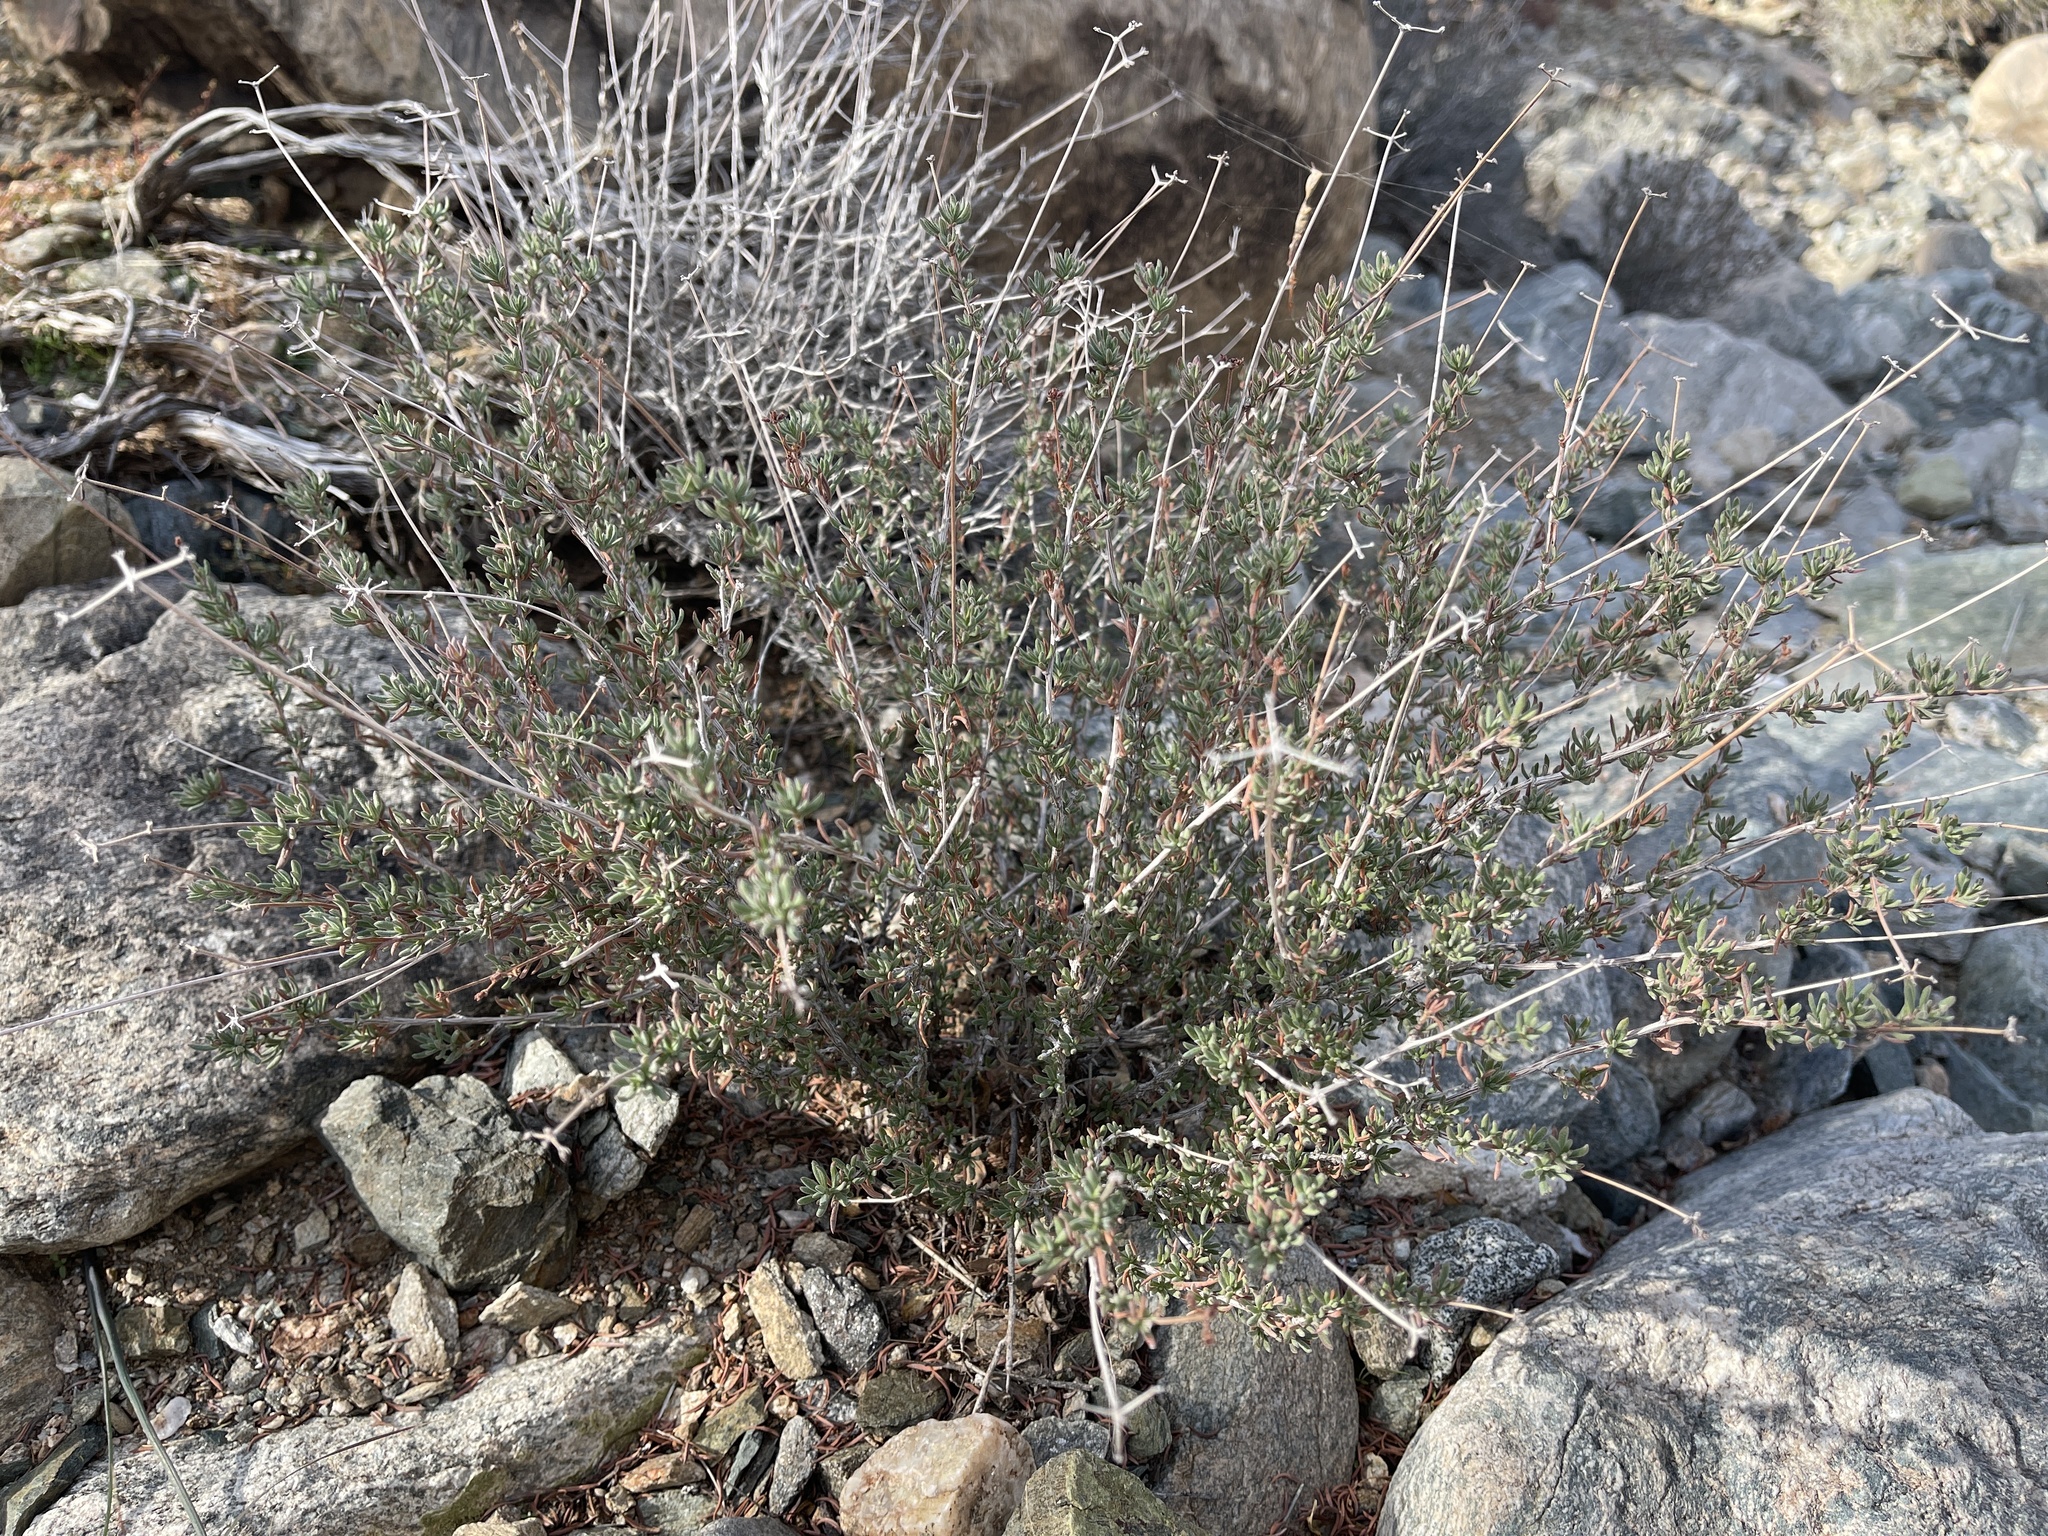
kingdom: Plantae
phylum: Tracheophyta
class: Magnoliopsida
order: Caryophyllales
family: Polygonaceae
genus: Eriogonum
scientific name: Eriogonum fasciculatum
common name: California wild buckwheat
